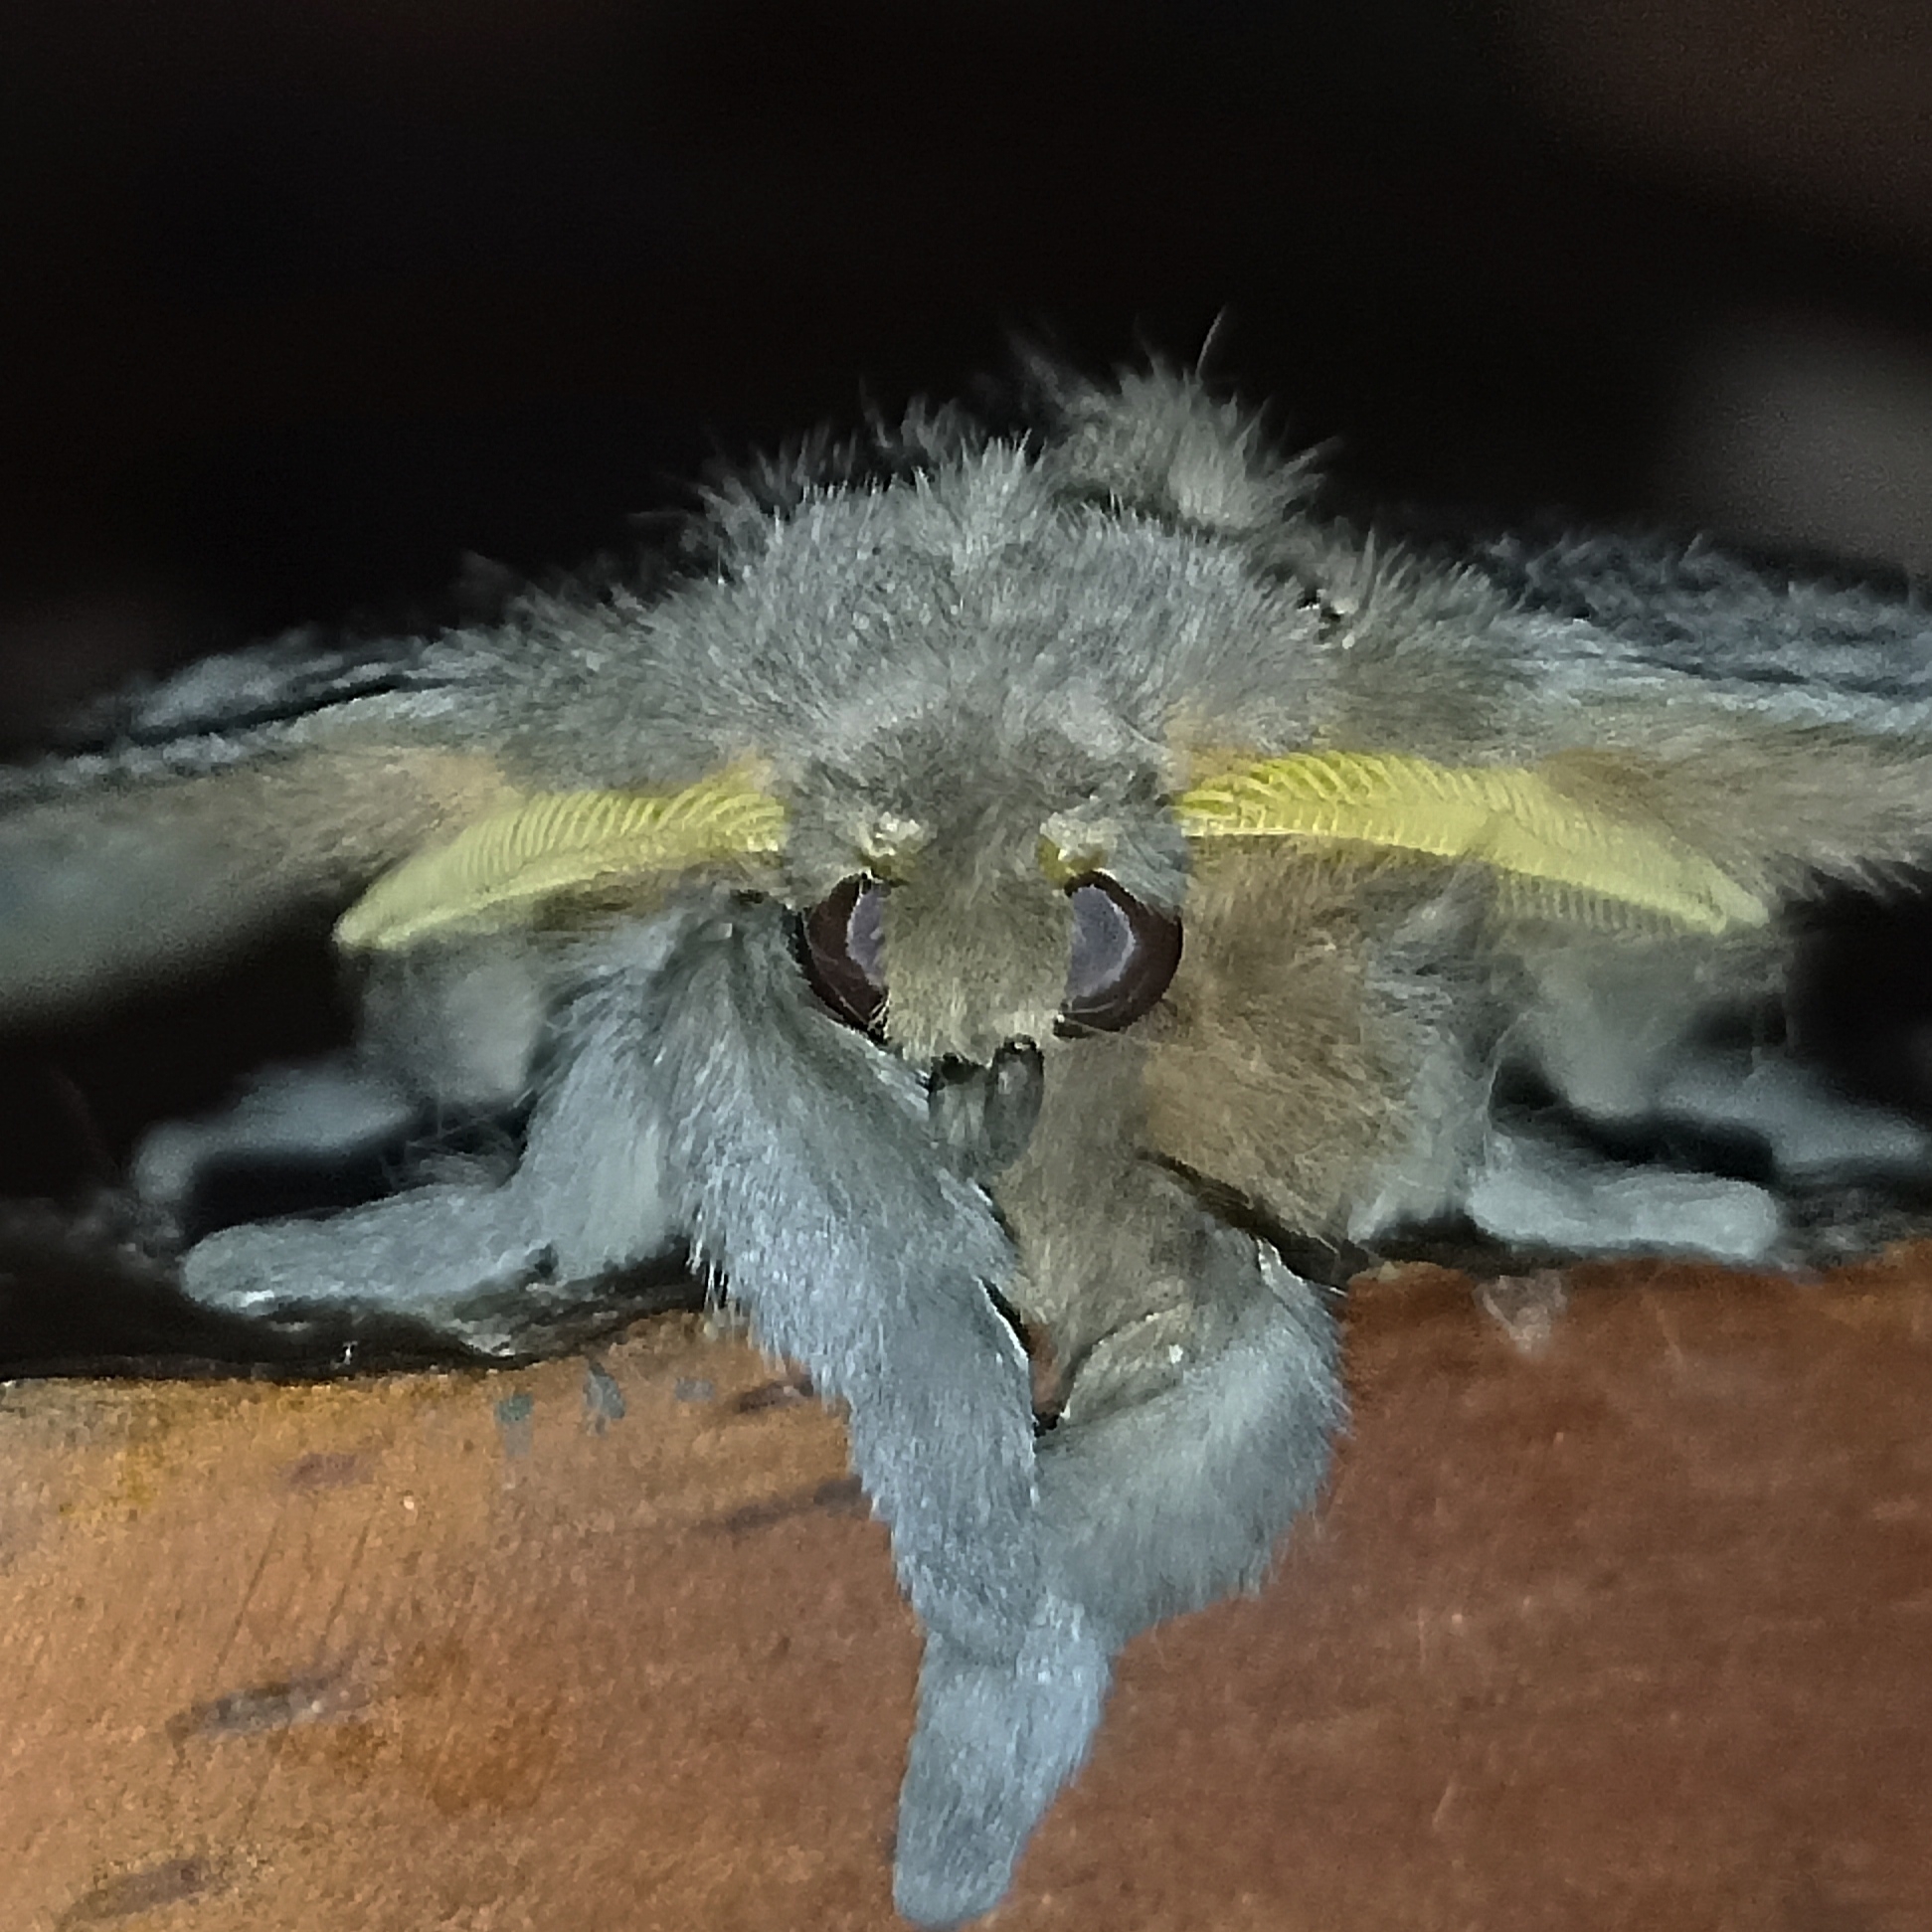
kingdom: Animalia
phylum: Arthropoda
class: Insecta
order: Lepidoptera
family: Saturniidae
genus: Periphoba
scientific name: Periphoba arcaei
